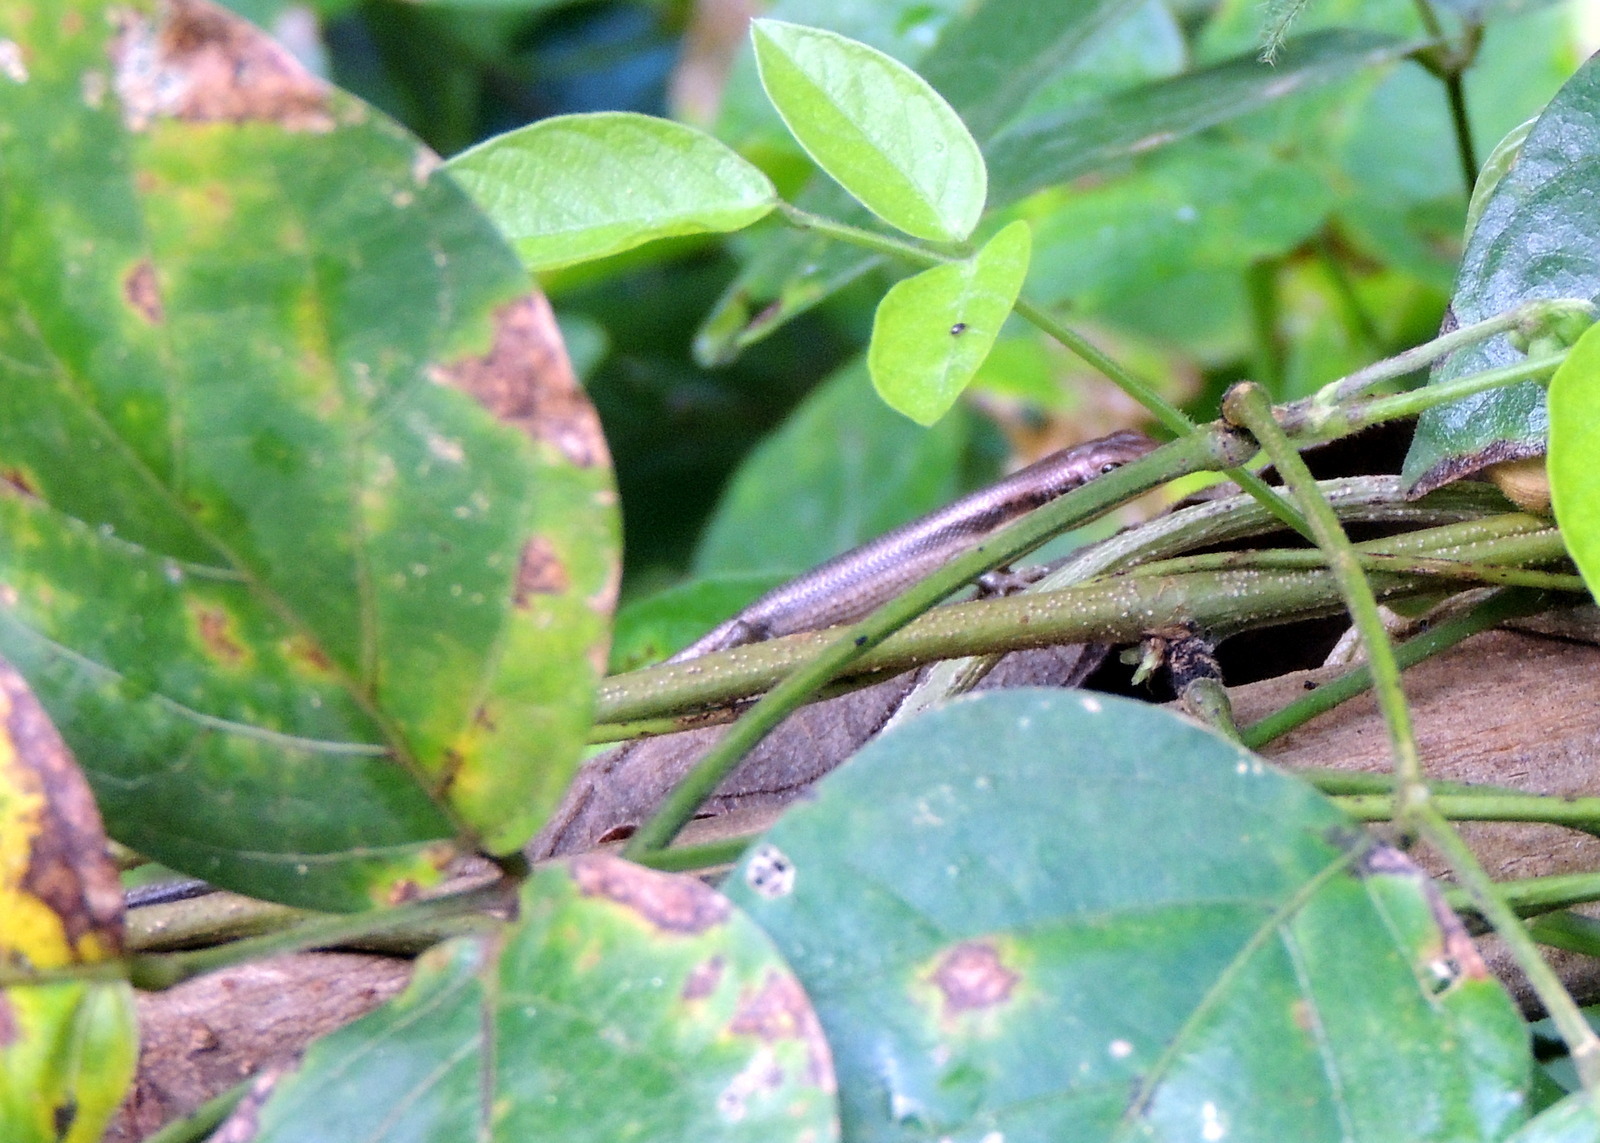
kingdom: Animalia
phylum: Chordata
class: Squamata
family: Scincidae
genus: Trachylepis
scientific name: Trachylepis
